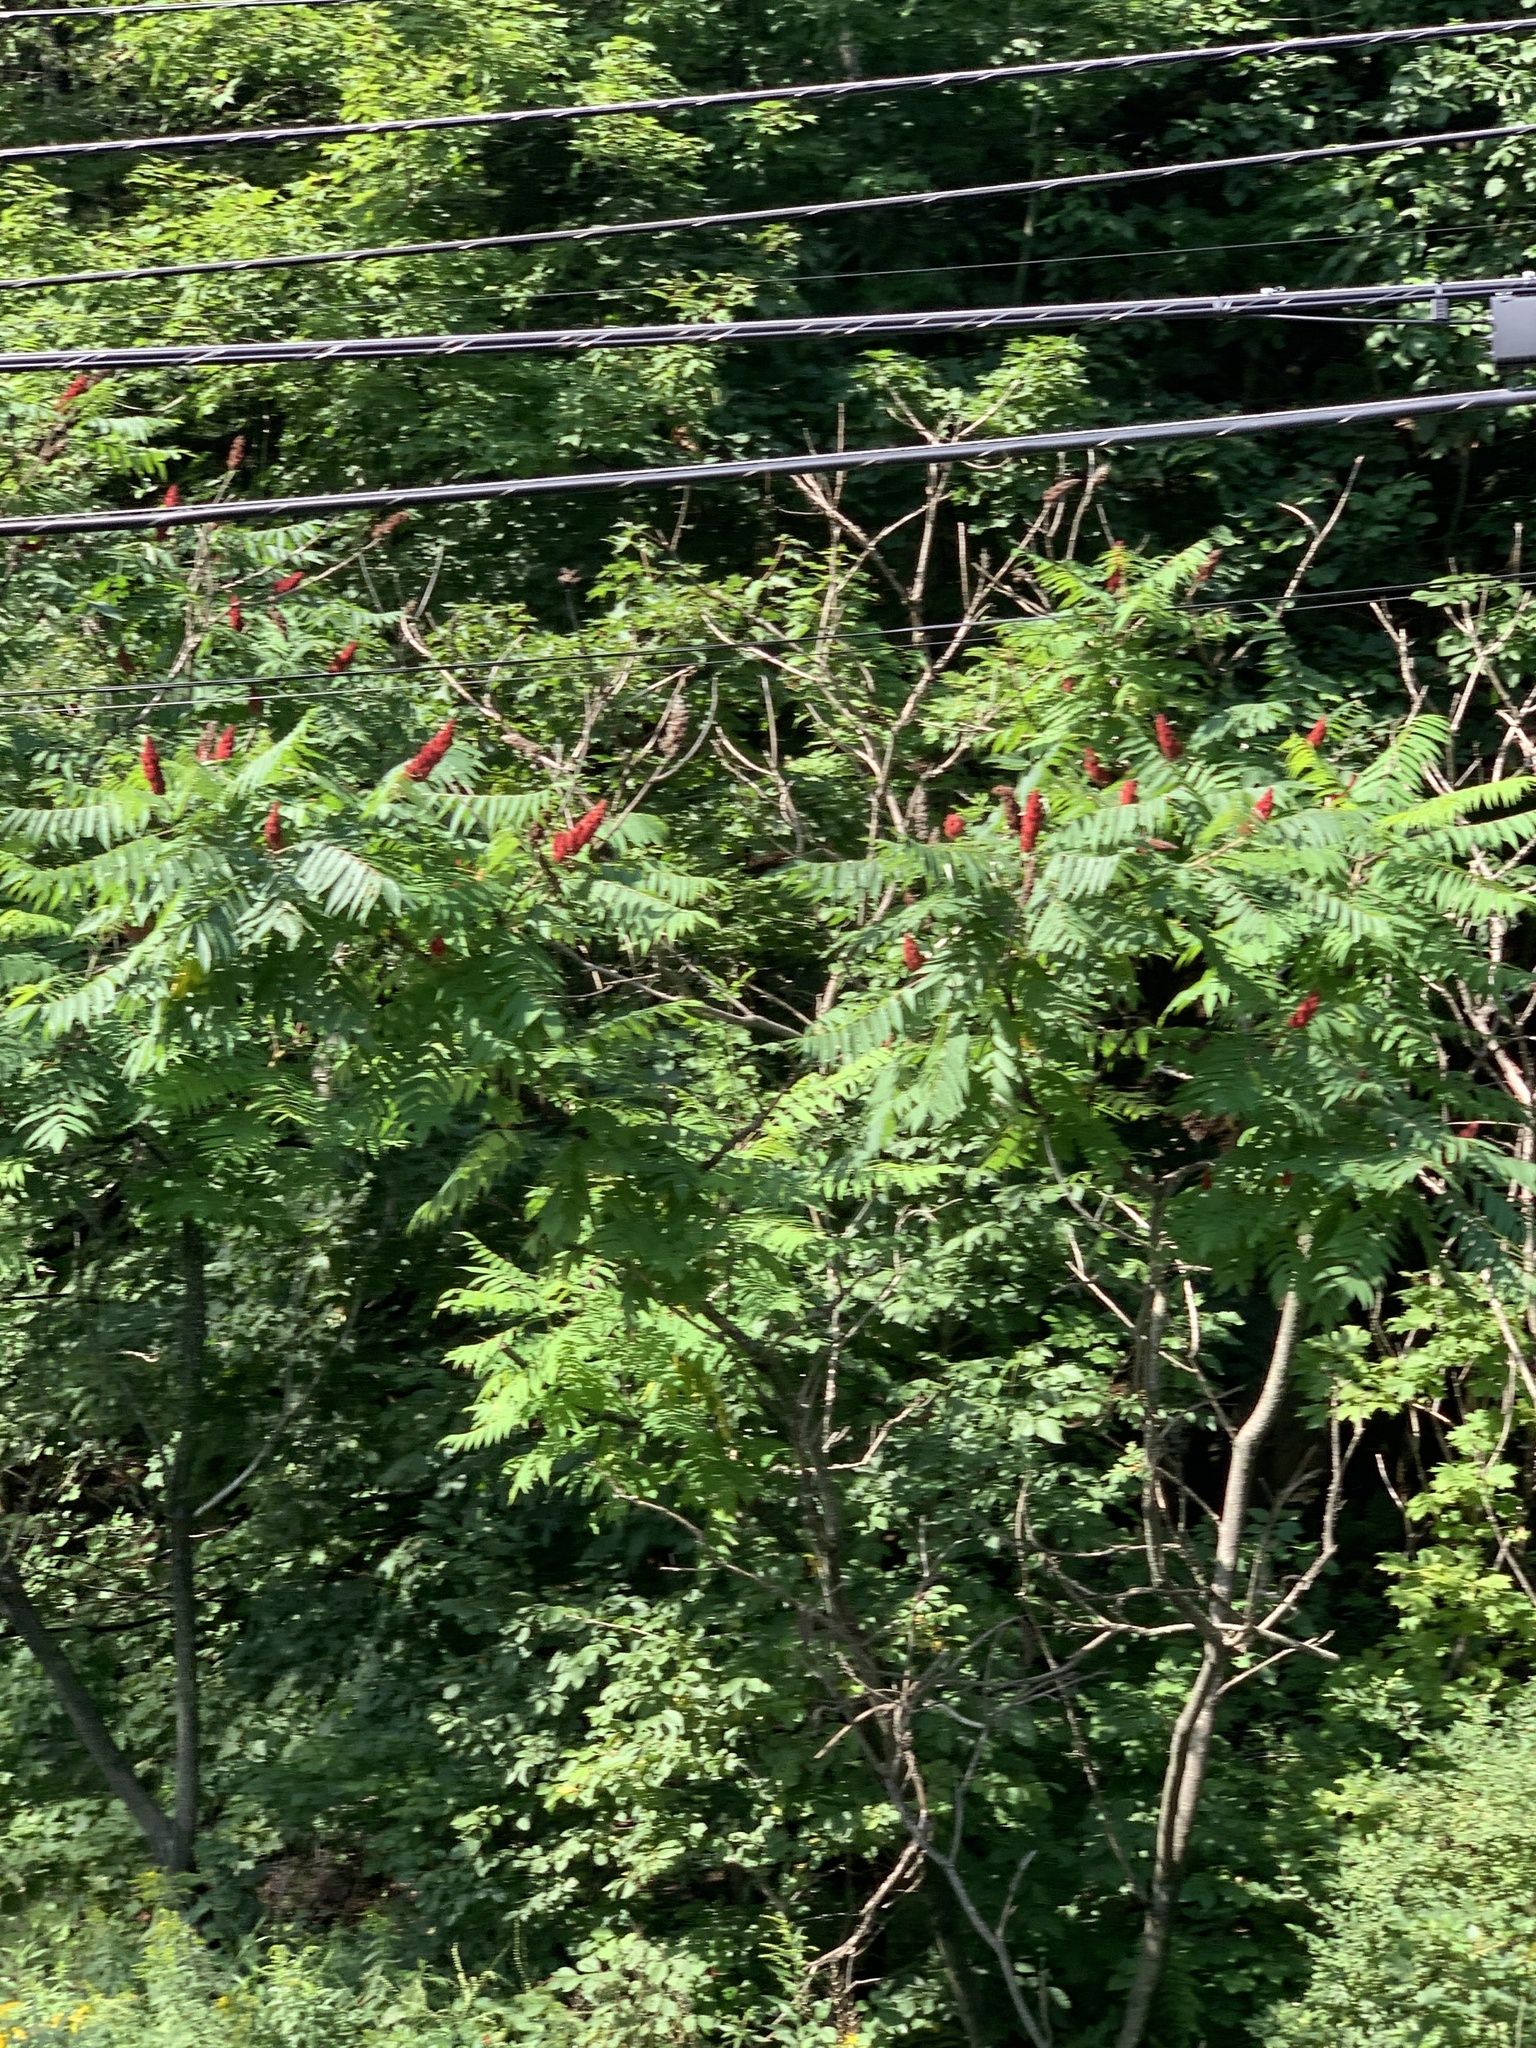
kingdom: Plantae
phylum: Tracheophyta
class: Magnoliopsida
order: Sapindales
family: Anacardiaceae
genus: Rhus
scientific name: Rhus typhina
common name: Staghorn sumac
